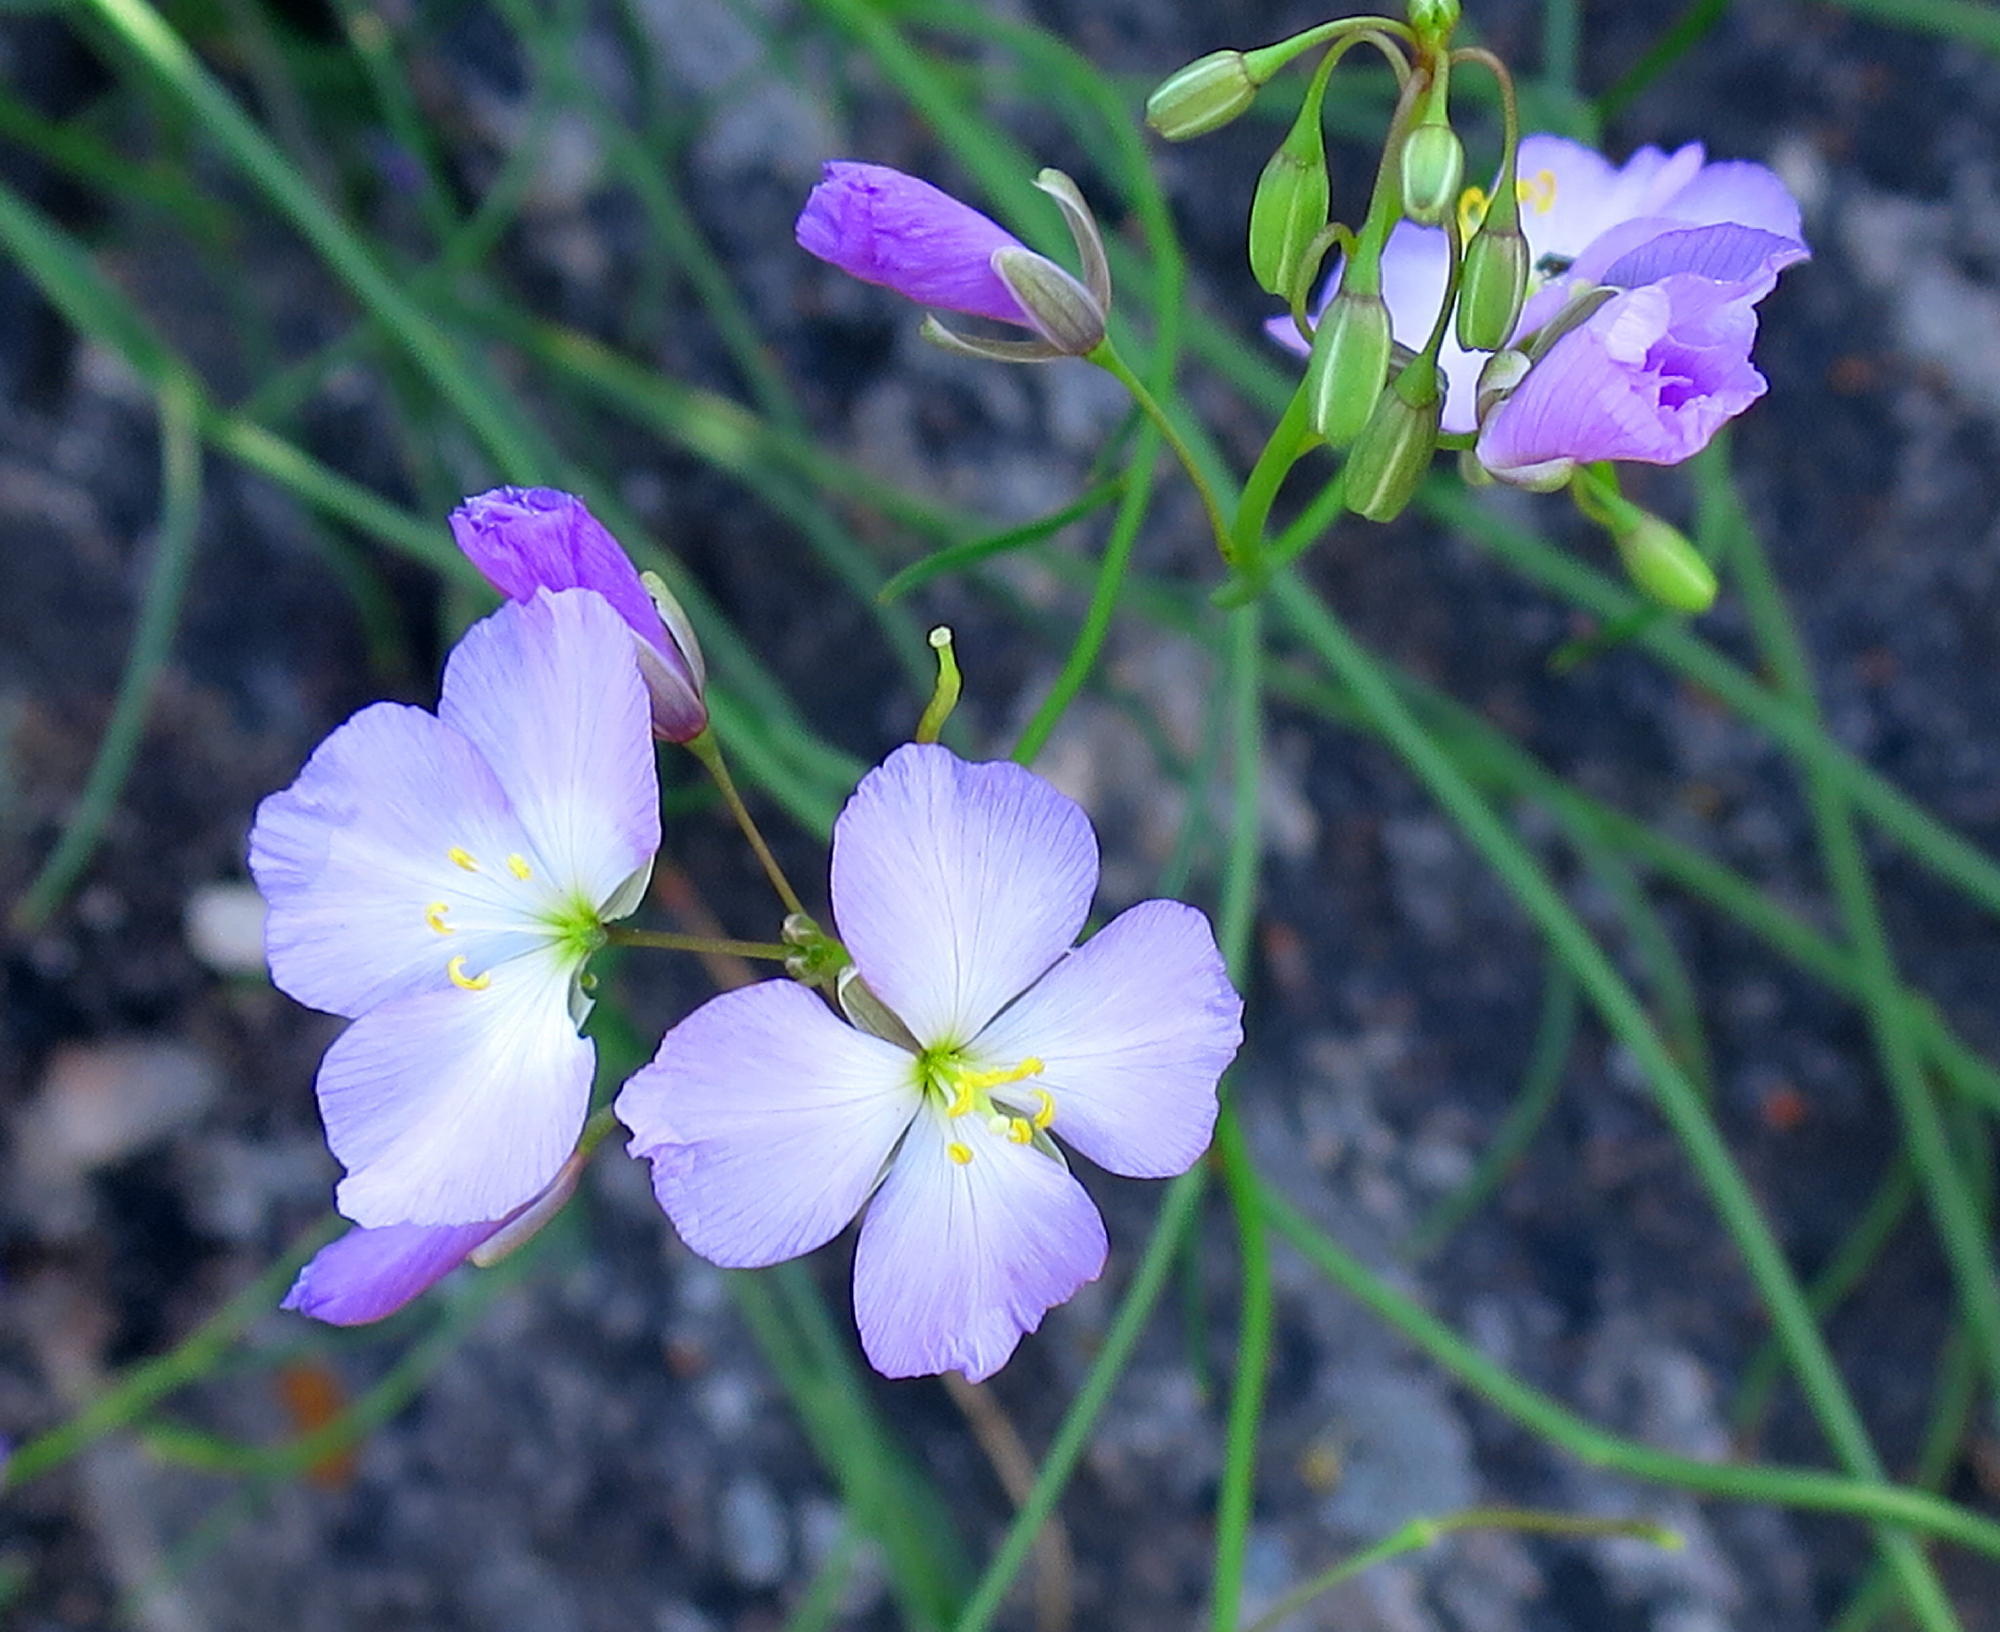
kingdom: Plantae
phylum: Tracheophyta
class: Magnoliopsida
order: Brassicales
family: Brassicaceae
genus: Heliophila
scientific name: Heliophila carnosa
